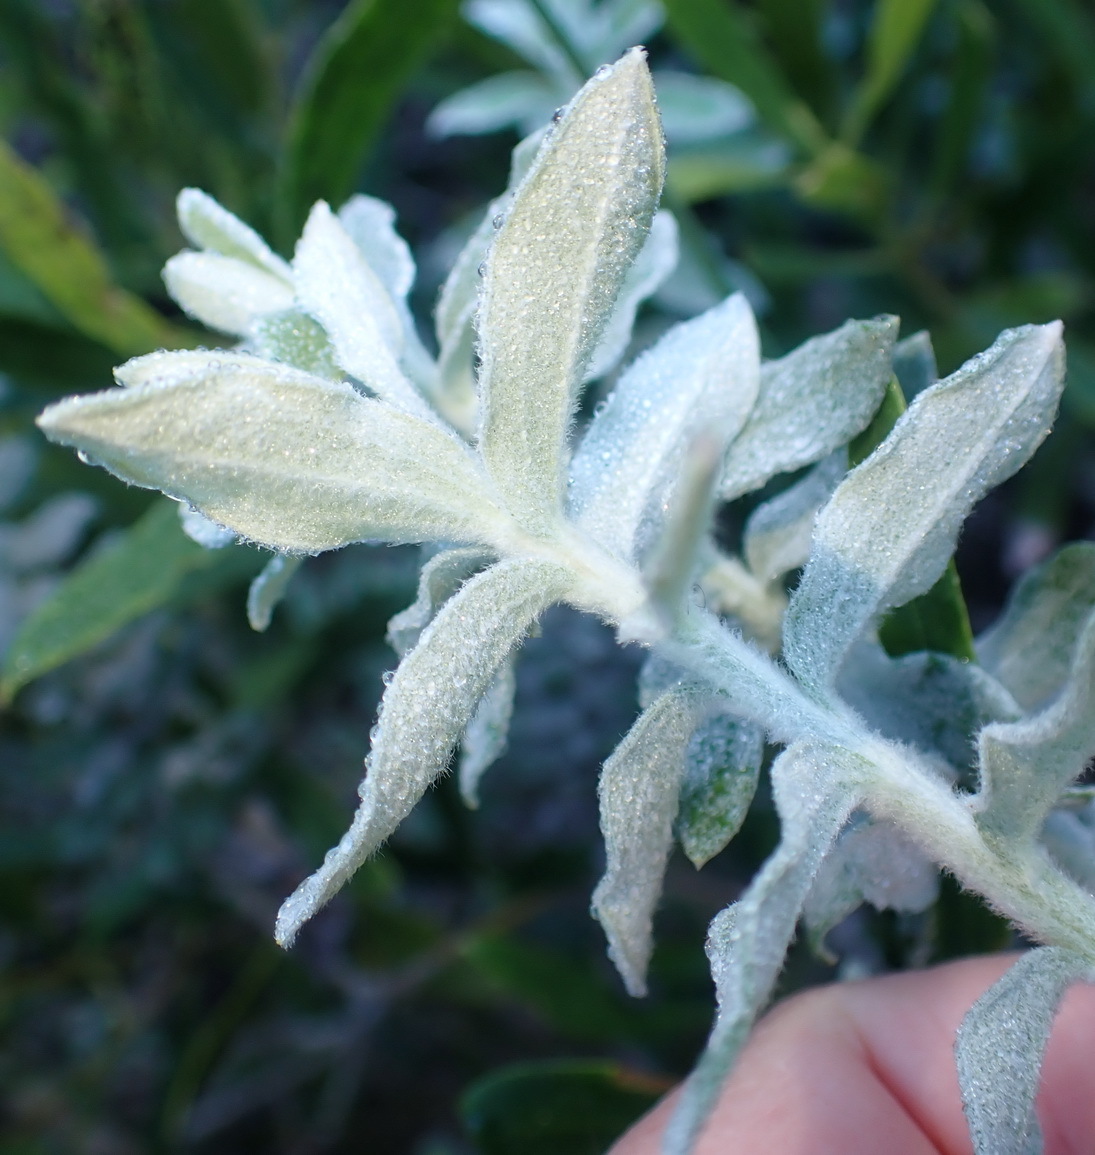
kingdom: Plantae
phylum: Tracheophyta
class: Magnoliopsida
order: Asterales
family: Asteraceae
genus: Helichrysum
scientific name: Helichrysum dasyanthum
